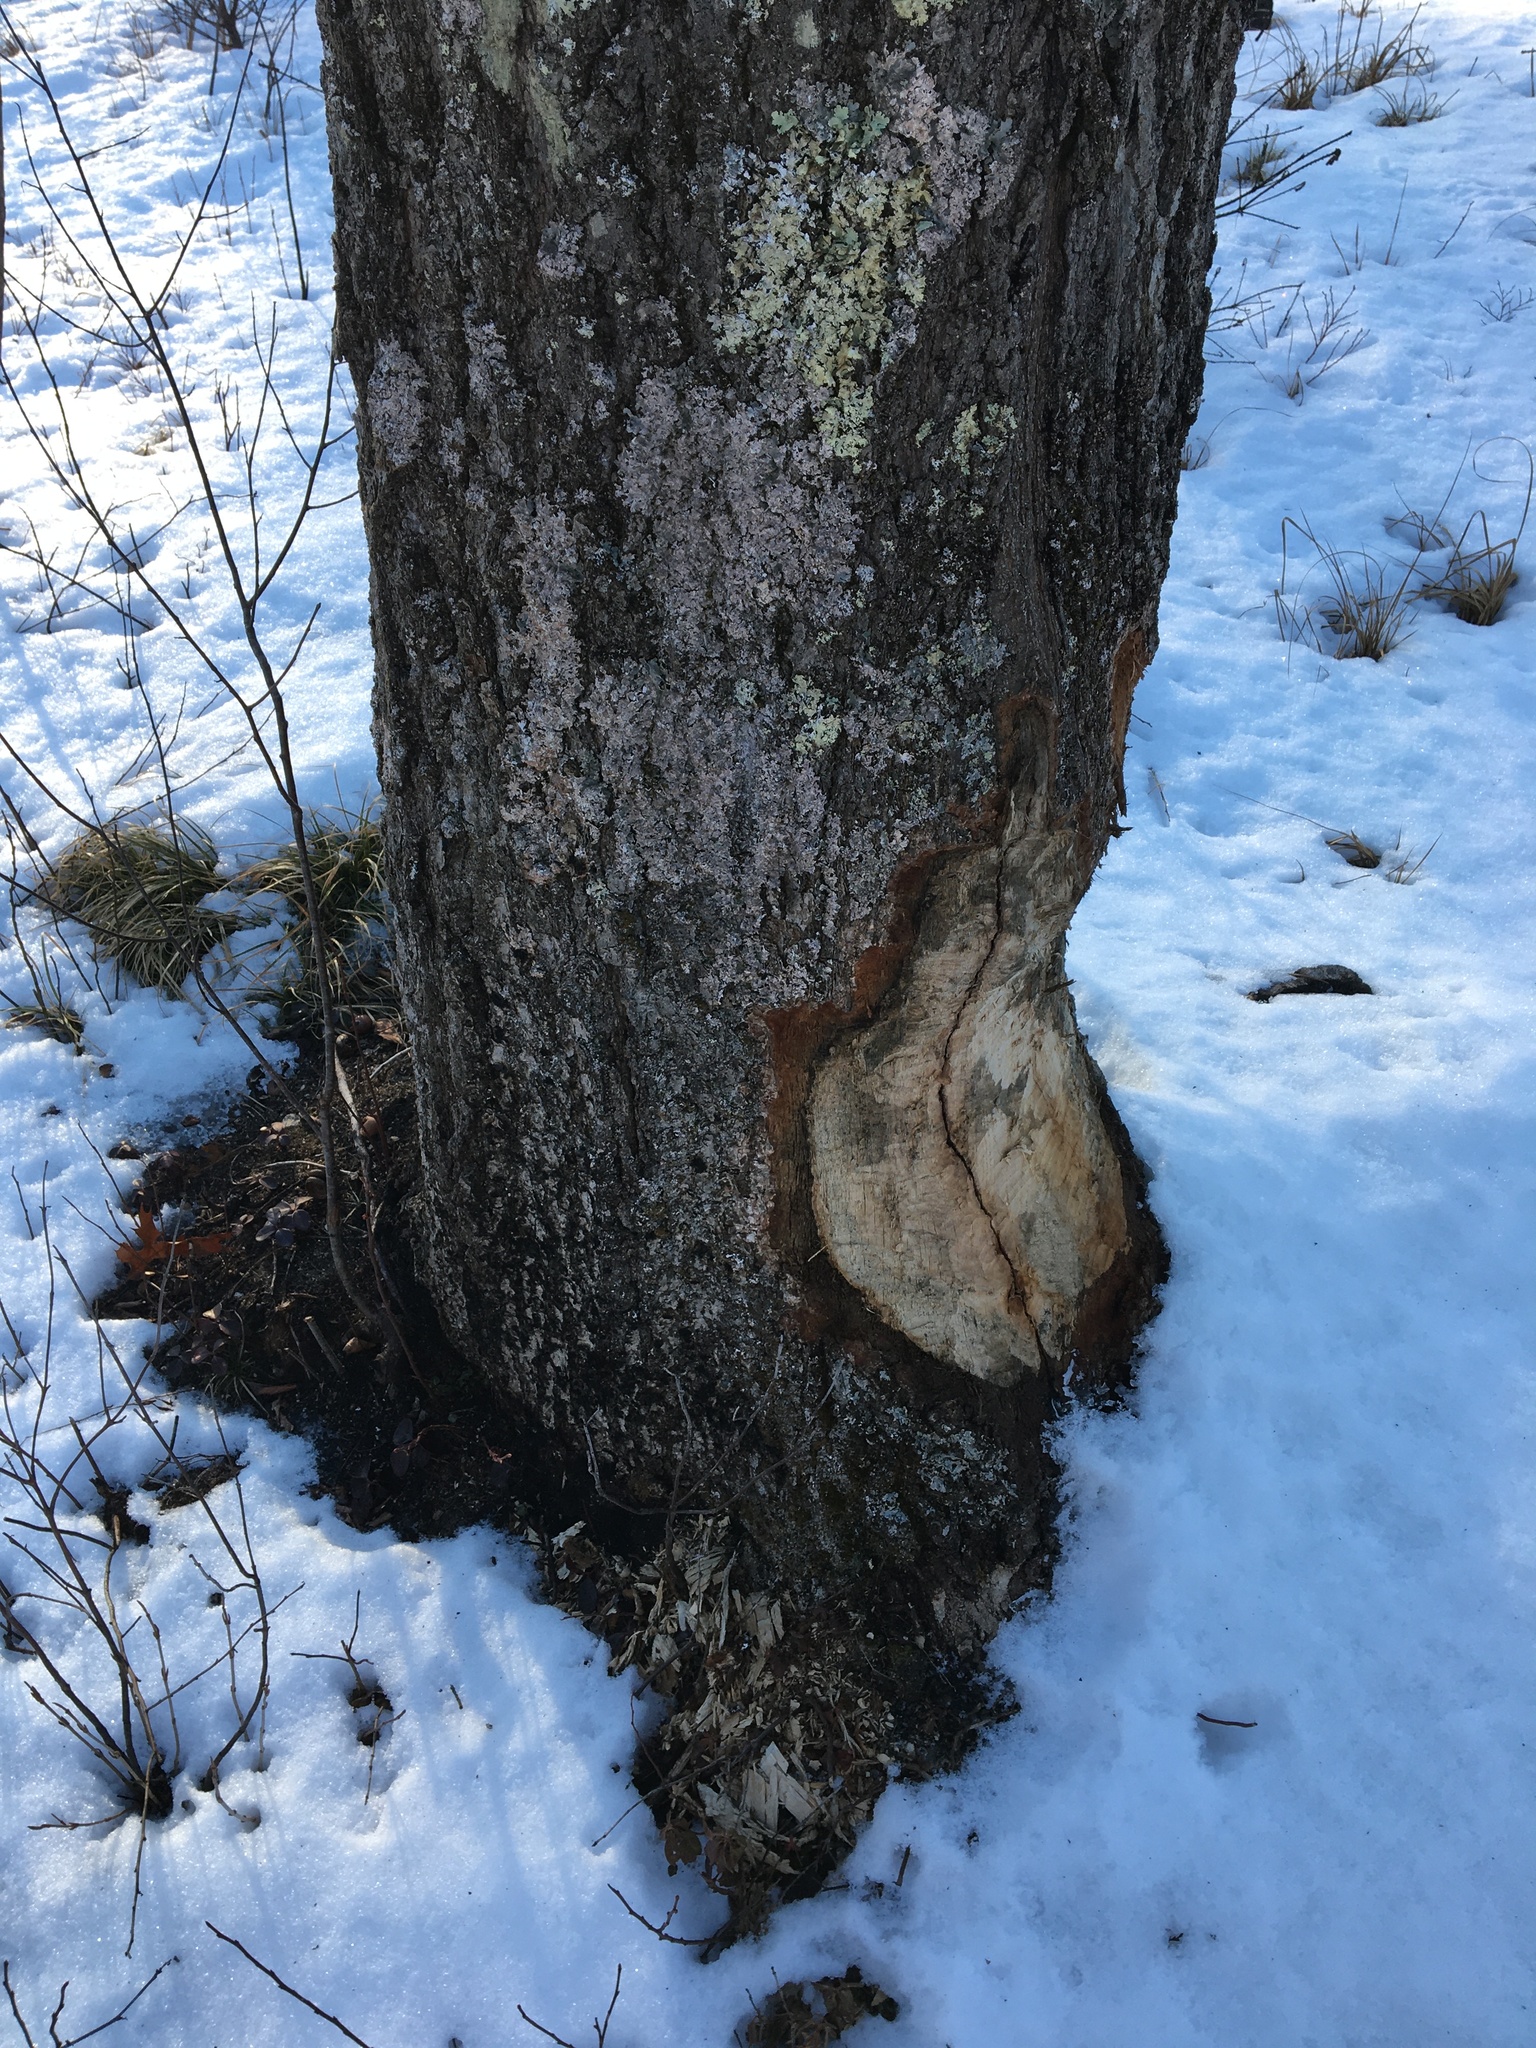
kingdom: Animalia
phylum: Chordata
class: Mammalia
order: Rodentia
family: Castoridae
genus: Castor
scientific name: Castor canadensis
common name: American beaver
